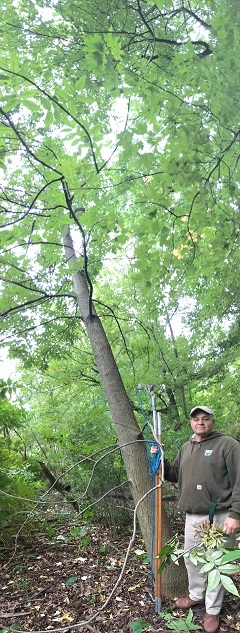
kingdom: Plantae
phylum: Tracheophyta
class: Magnoliopsida
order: Lamiales
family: Oleaceae
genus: Fraxinus
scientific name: Fraxinus profunda
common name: Pumpkin ash
